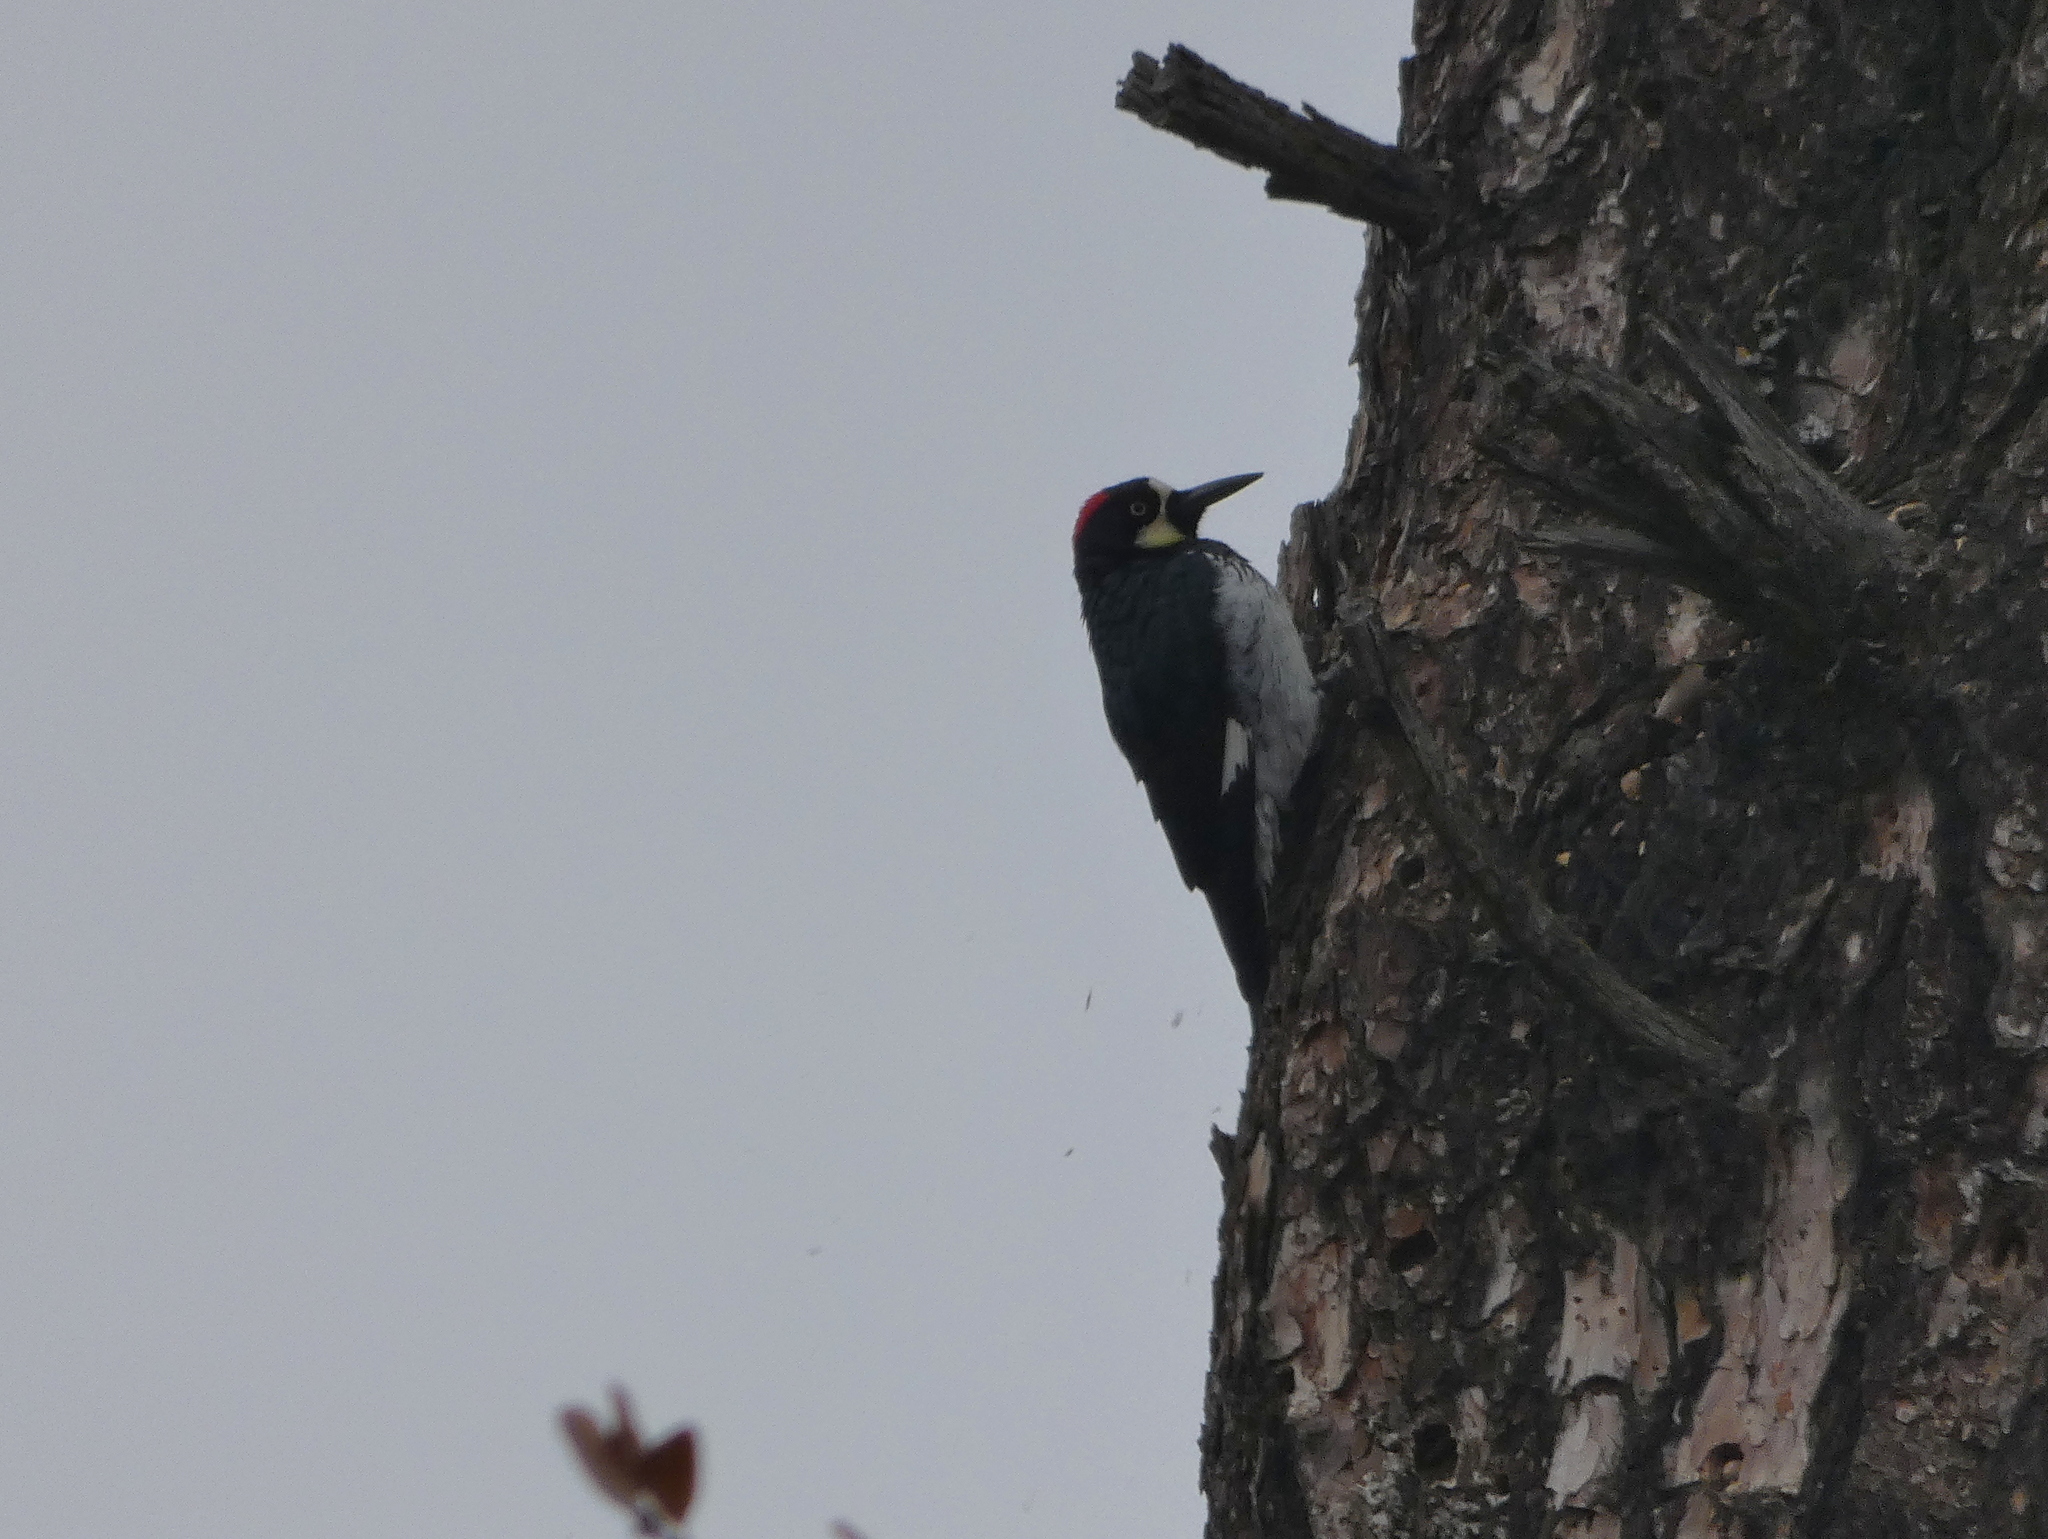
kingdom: Animalia
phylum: Chordata
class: Aves
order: Piciformes
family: Picidae
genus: Melanerpes
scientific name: Melanerpes formicivorus
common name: Acorn woodpecker
